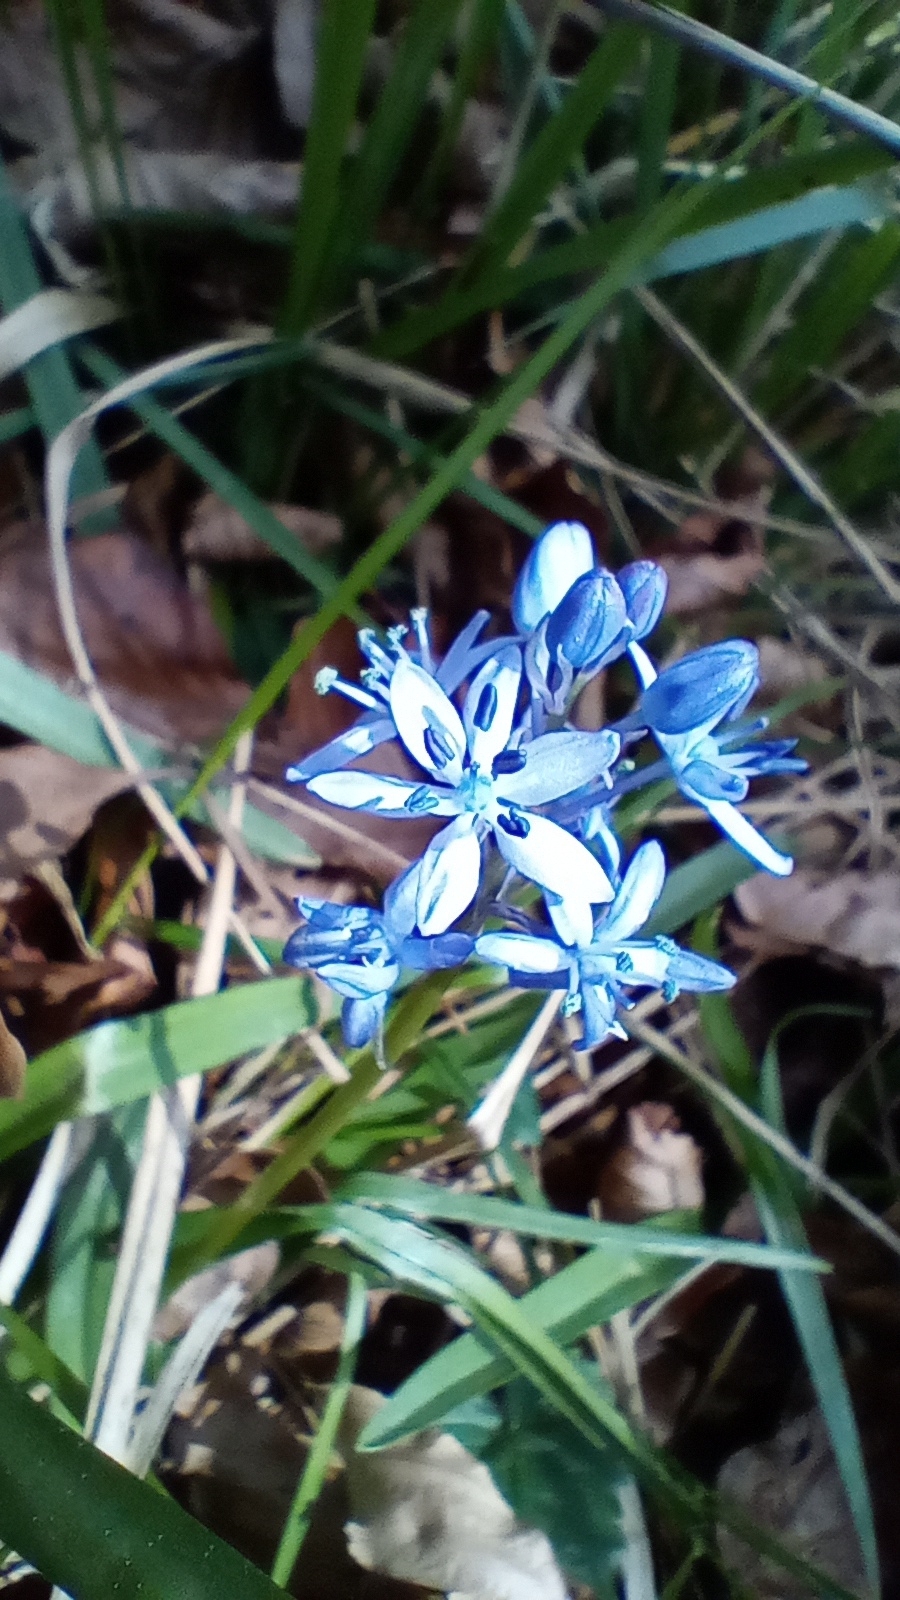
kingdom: Plantae
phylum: Tracheophyta
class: Liliopsida
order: Asparagales
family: Asparagaceae
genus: Hyacinthoides
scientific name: Hyacinthoides italica
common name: Italian bluebell
